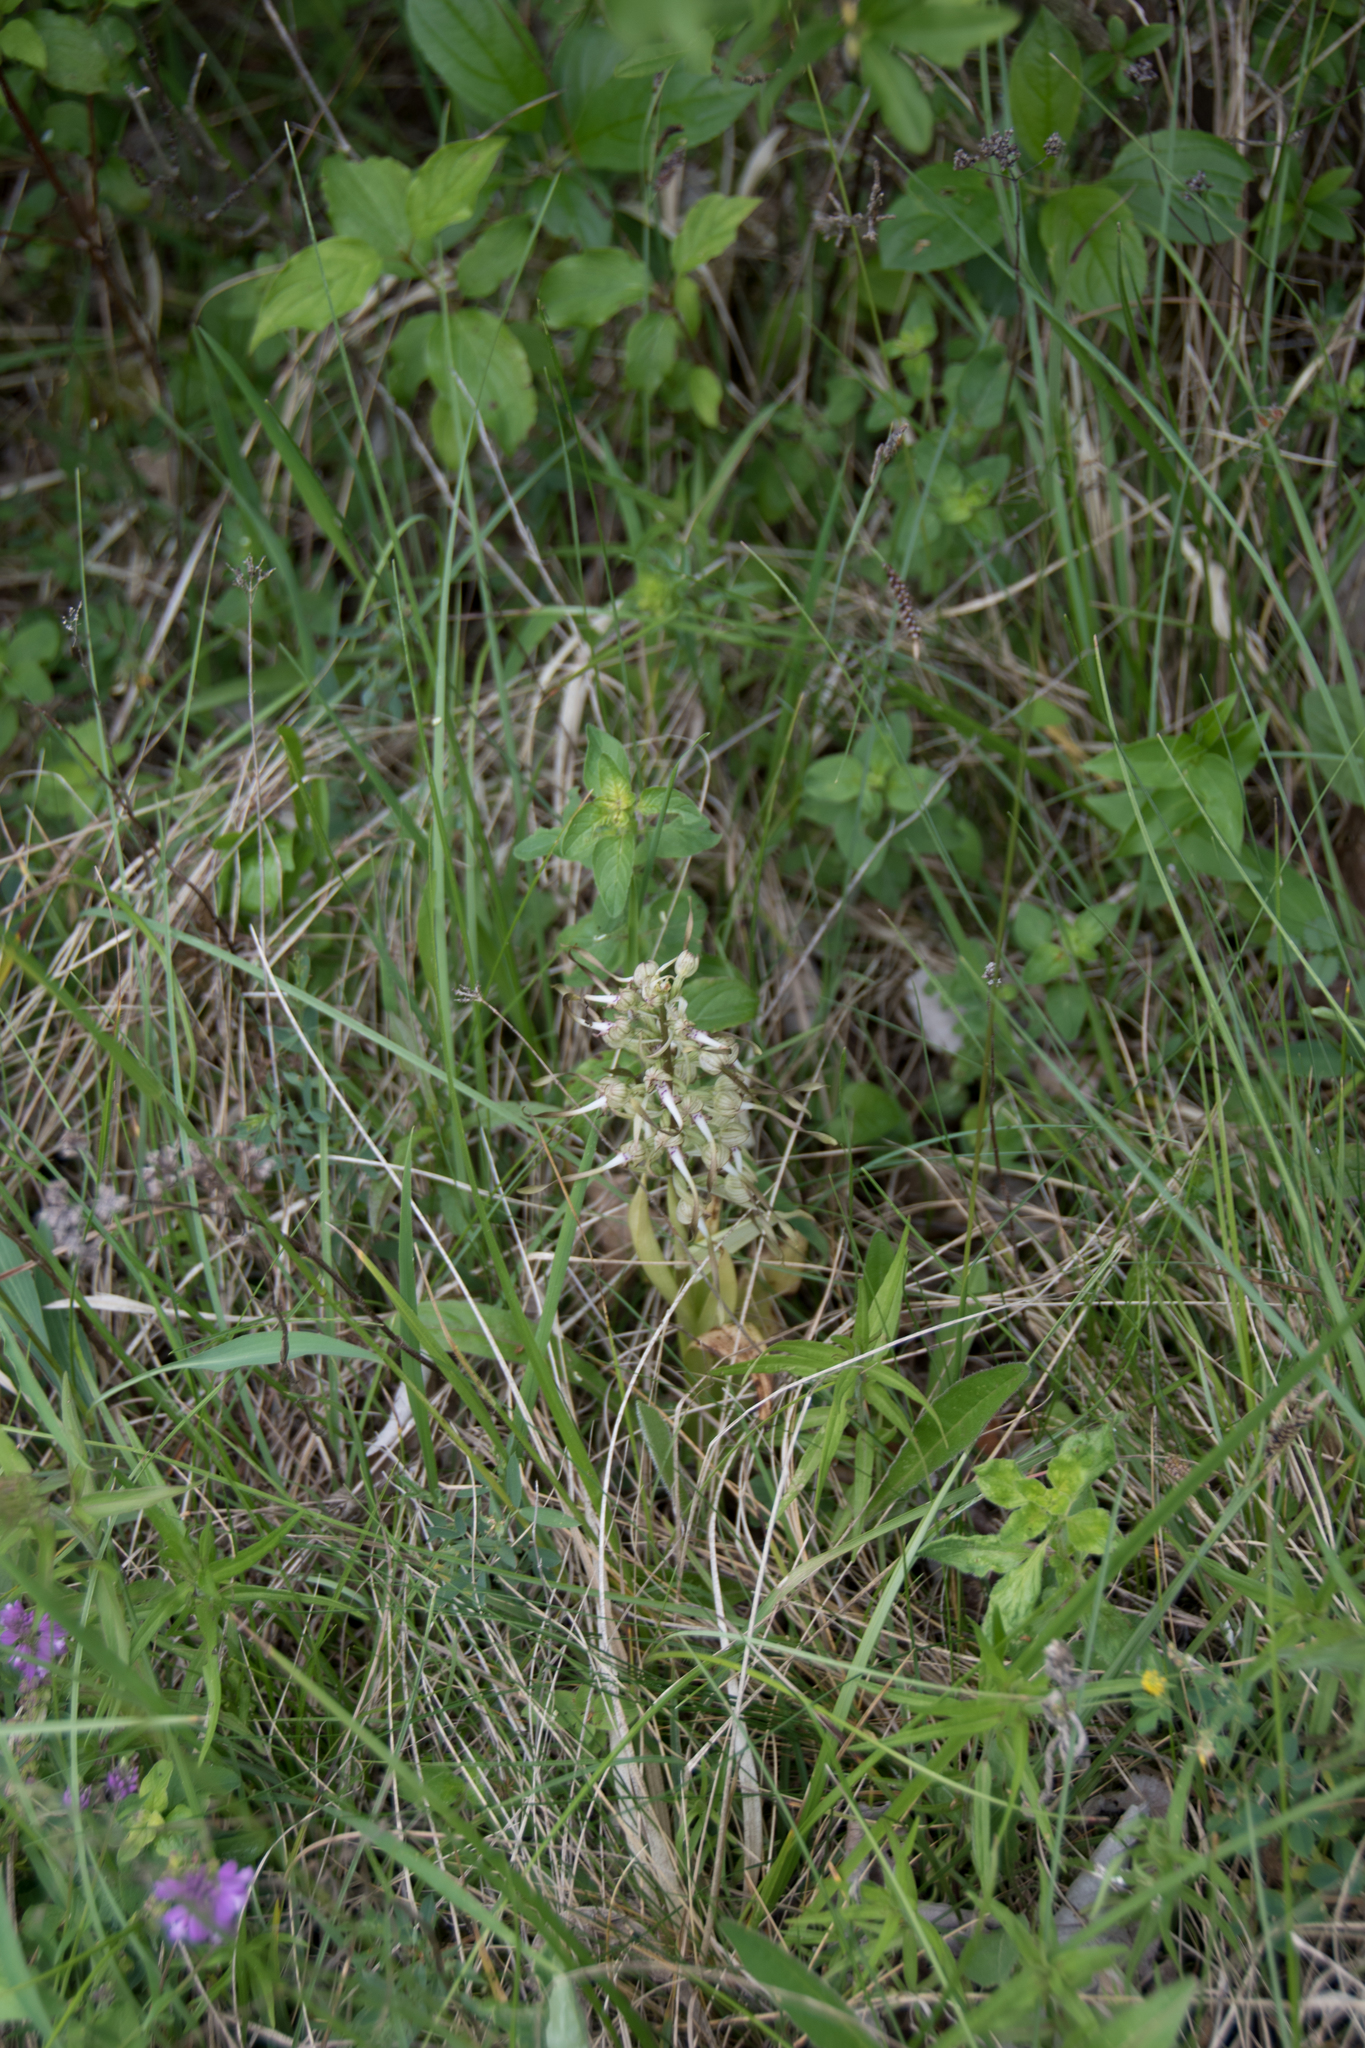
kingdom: Plantae
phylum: Tracheophyta
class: Liliopsida
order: Asparagales
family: Orchidaceae
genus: Himantoglossum
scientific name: Himantoglossum hircinum
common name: Lizard orchid
